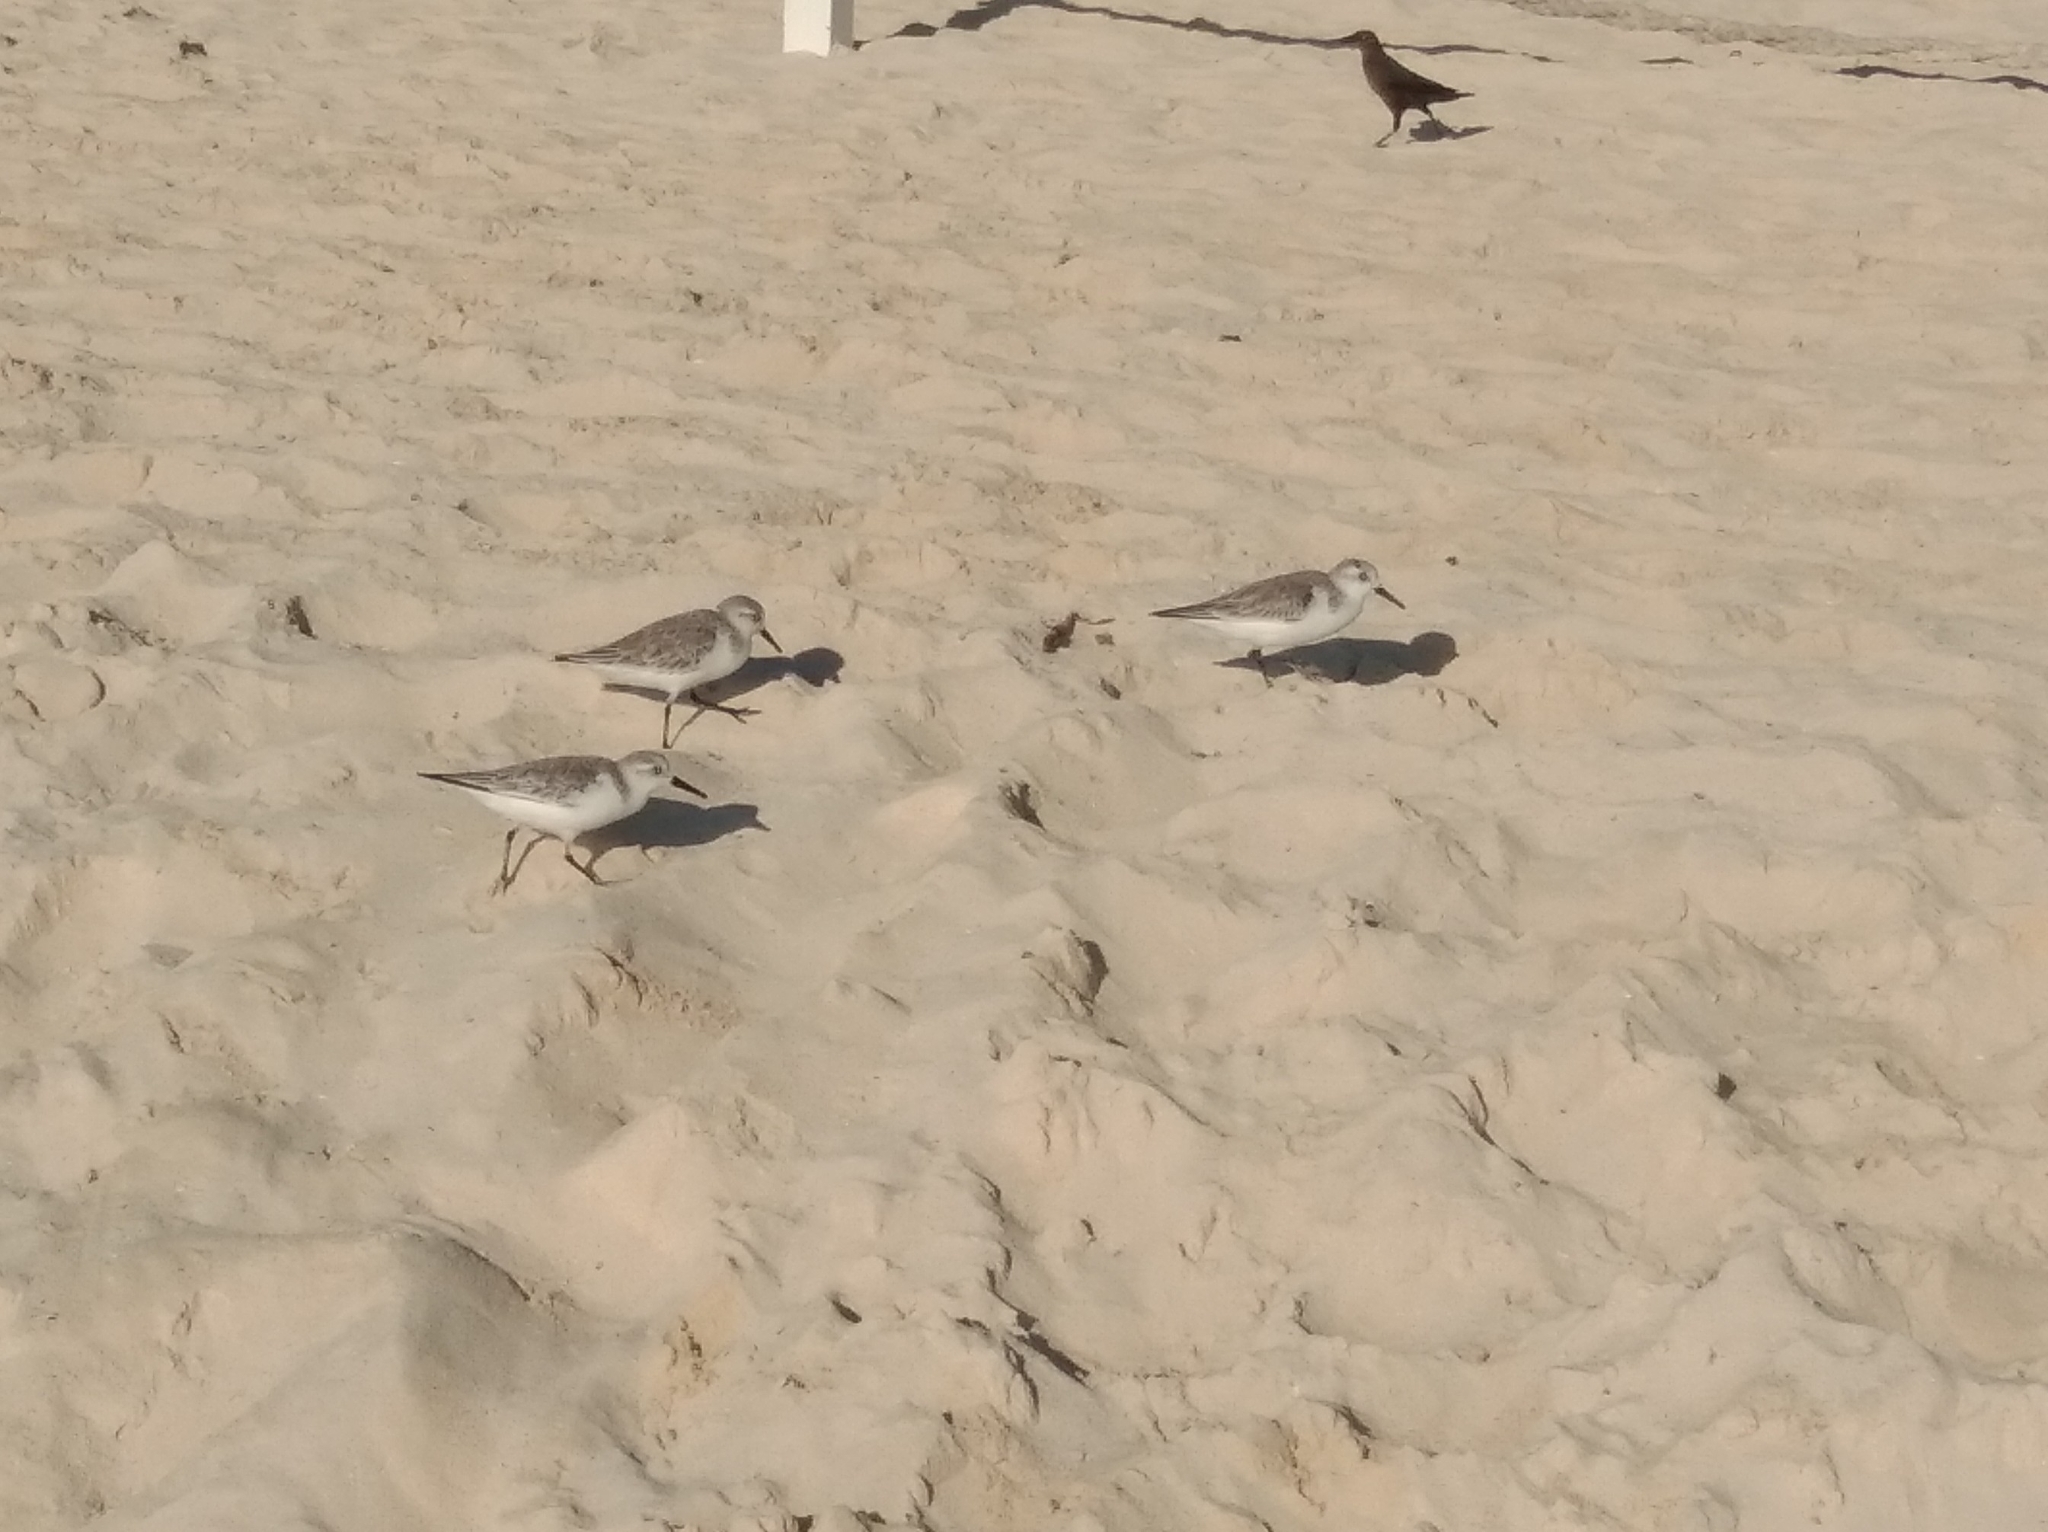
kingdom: Animalia
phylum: Chordata
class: Aves
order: Charadriiformes
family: Scolopacidae
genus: Calidris
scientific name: Calidris alba
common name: Sanderling
